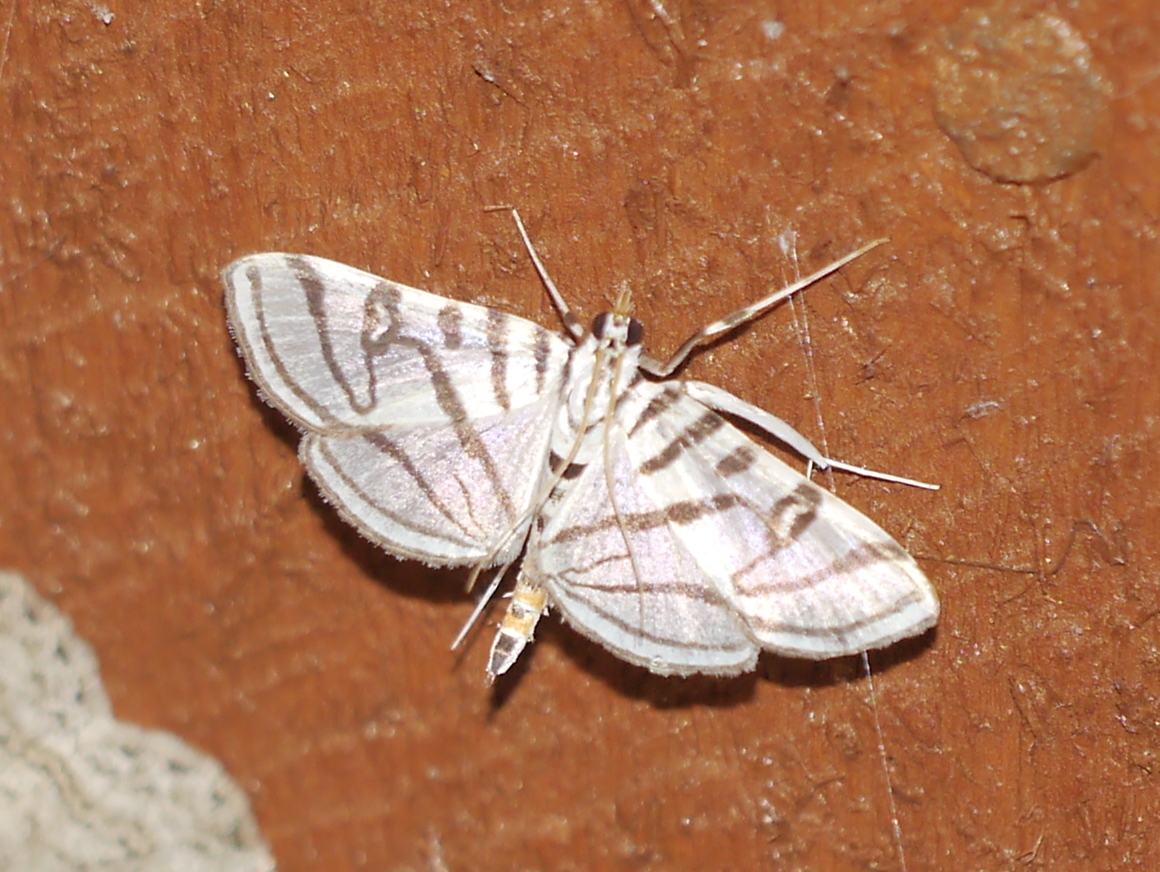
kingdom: Animalia
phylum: Arthropoda
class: Insecta
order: Lepidoptera
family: Crambidae
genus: Conchylodes
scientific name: Conchylodes ovulalis
